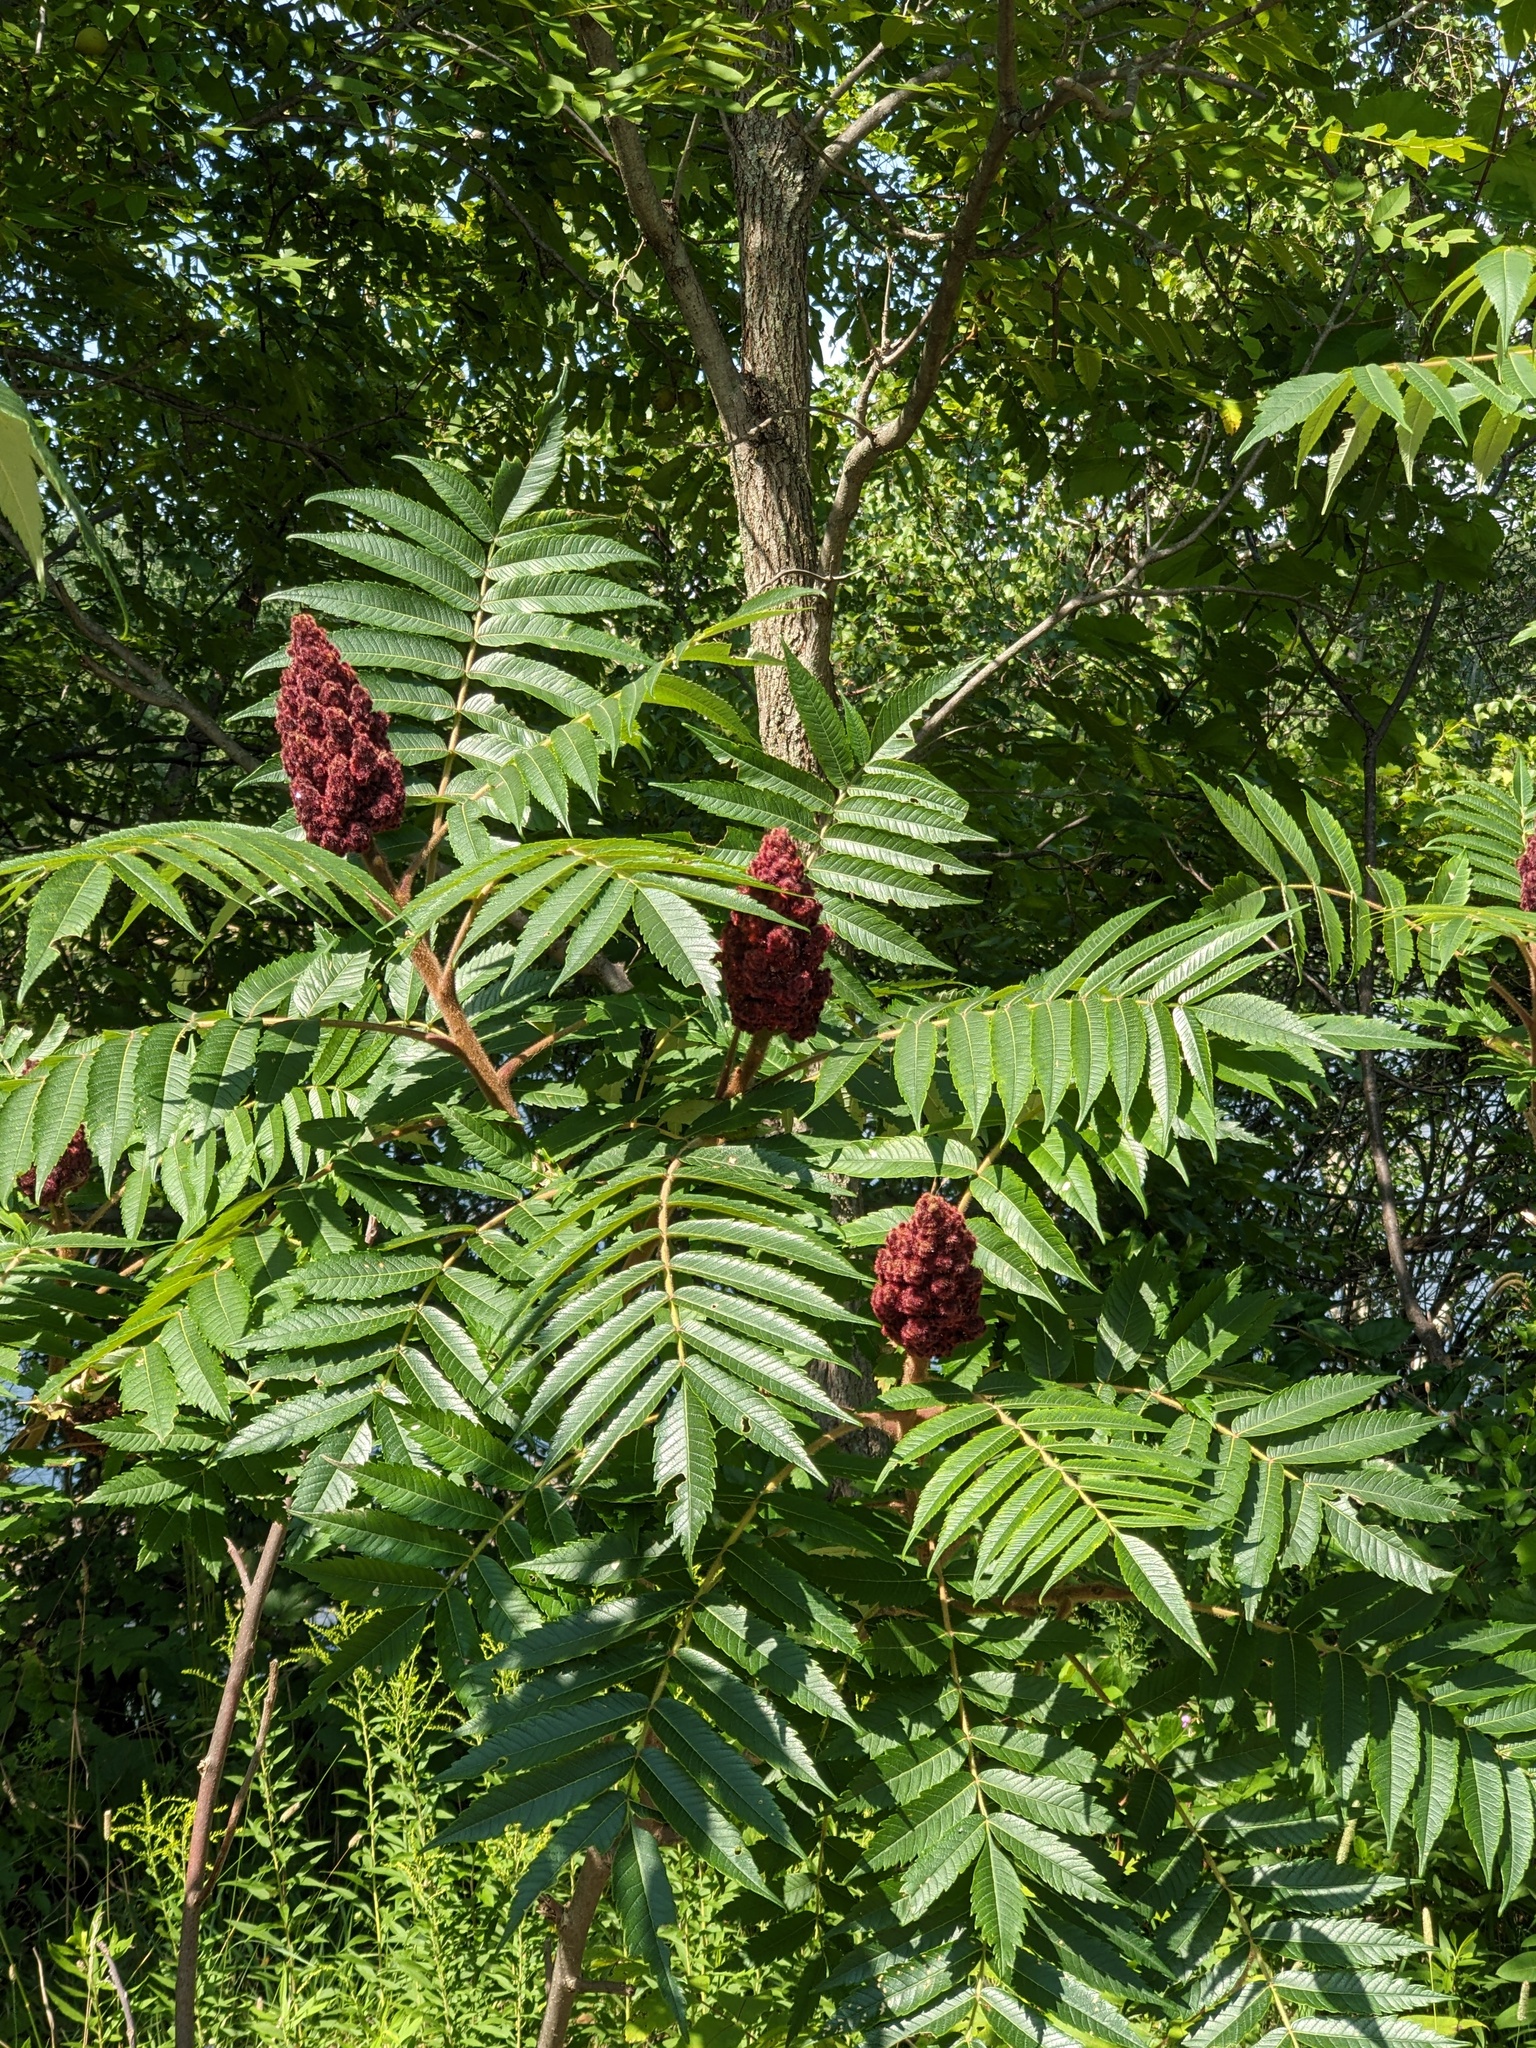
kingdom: Plantae
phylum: Tracheophyta
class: Magnoliopsida
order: Sapindales
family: Anacardiaceae
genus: Rhus
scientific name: Rhus typhina
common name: Staghorn sumac
